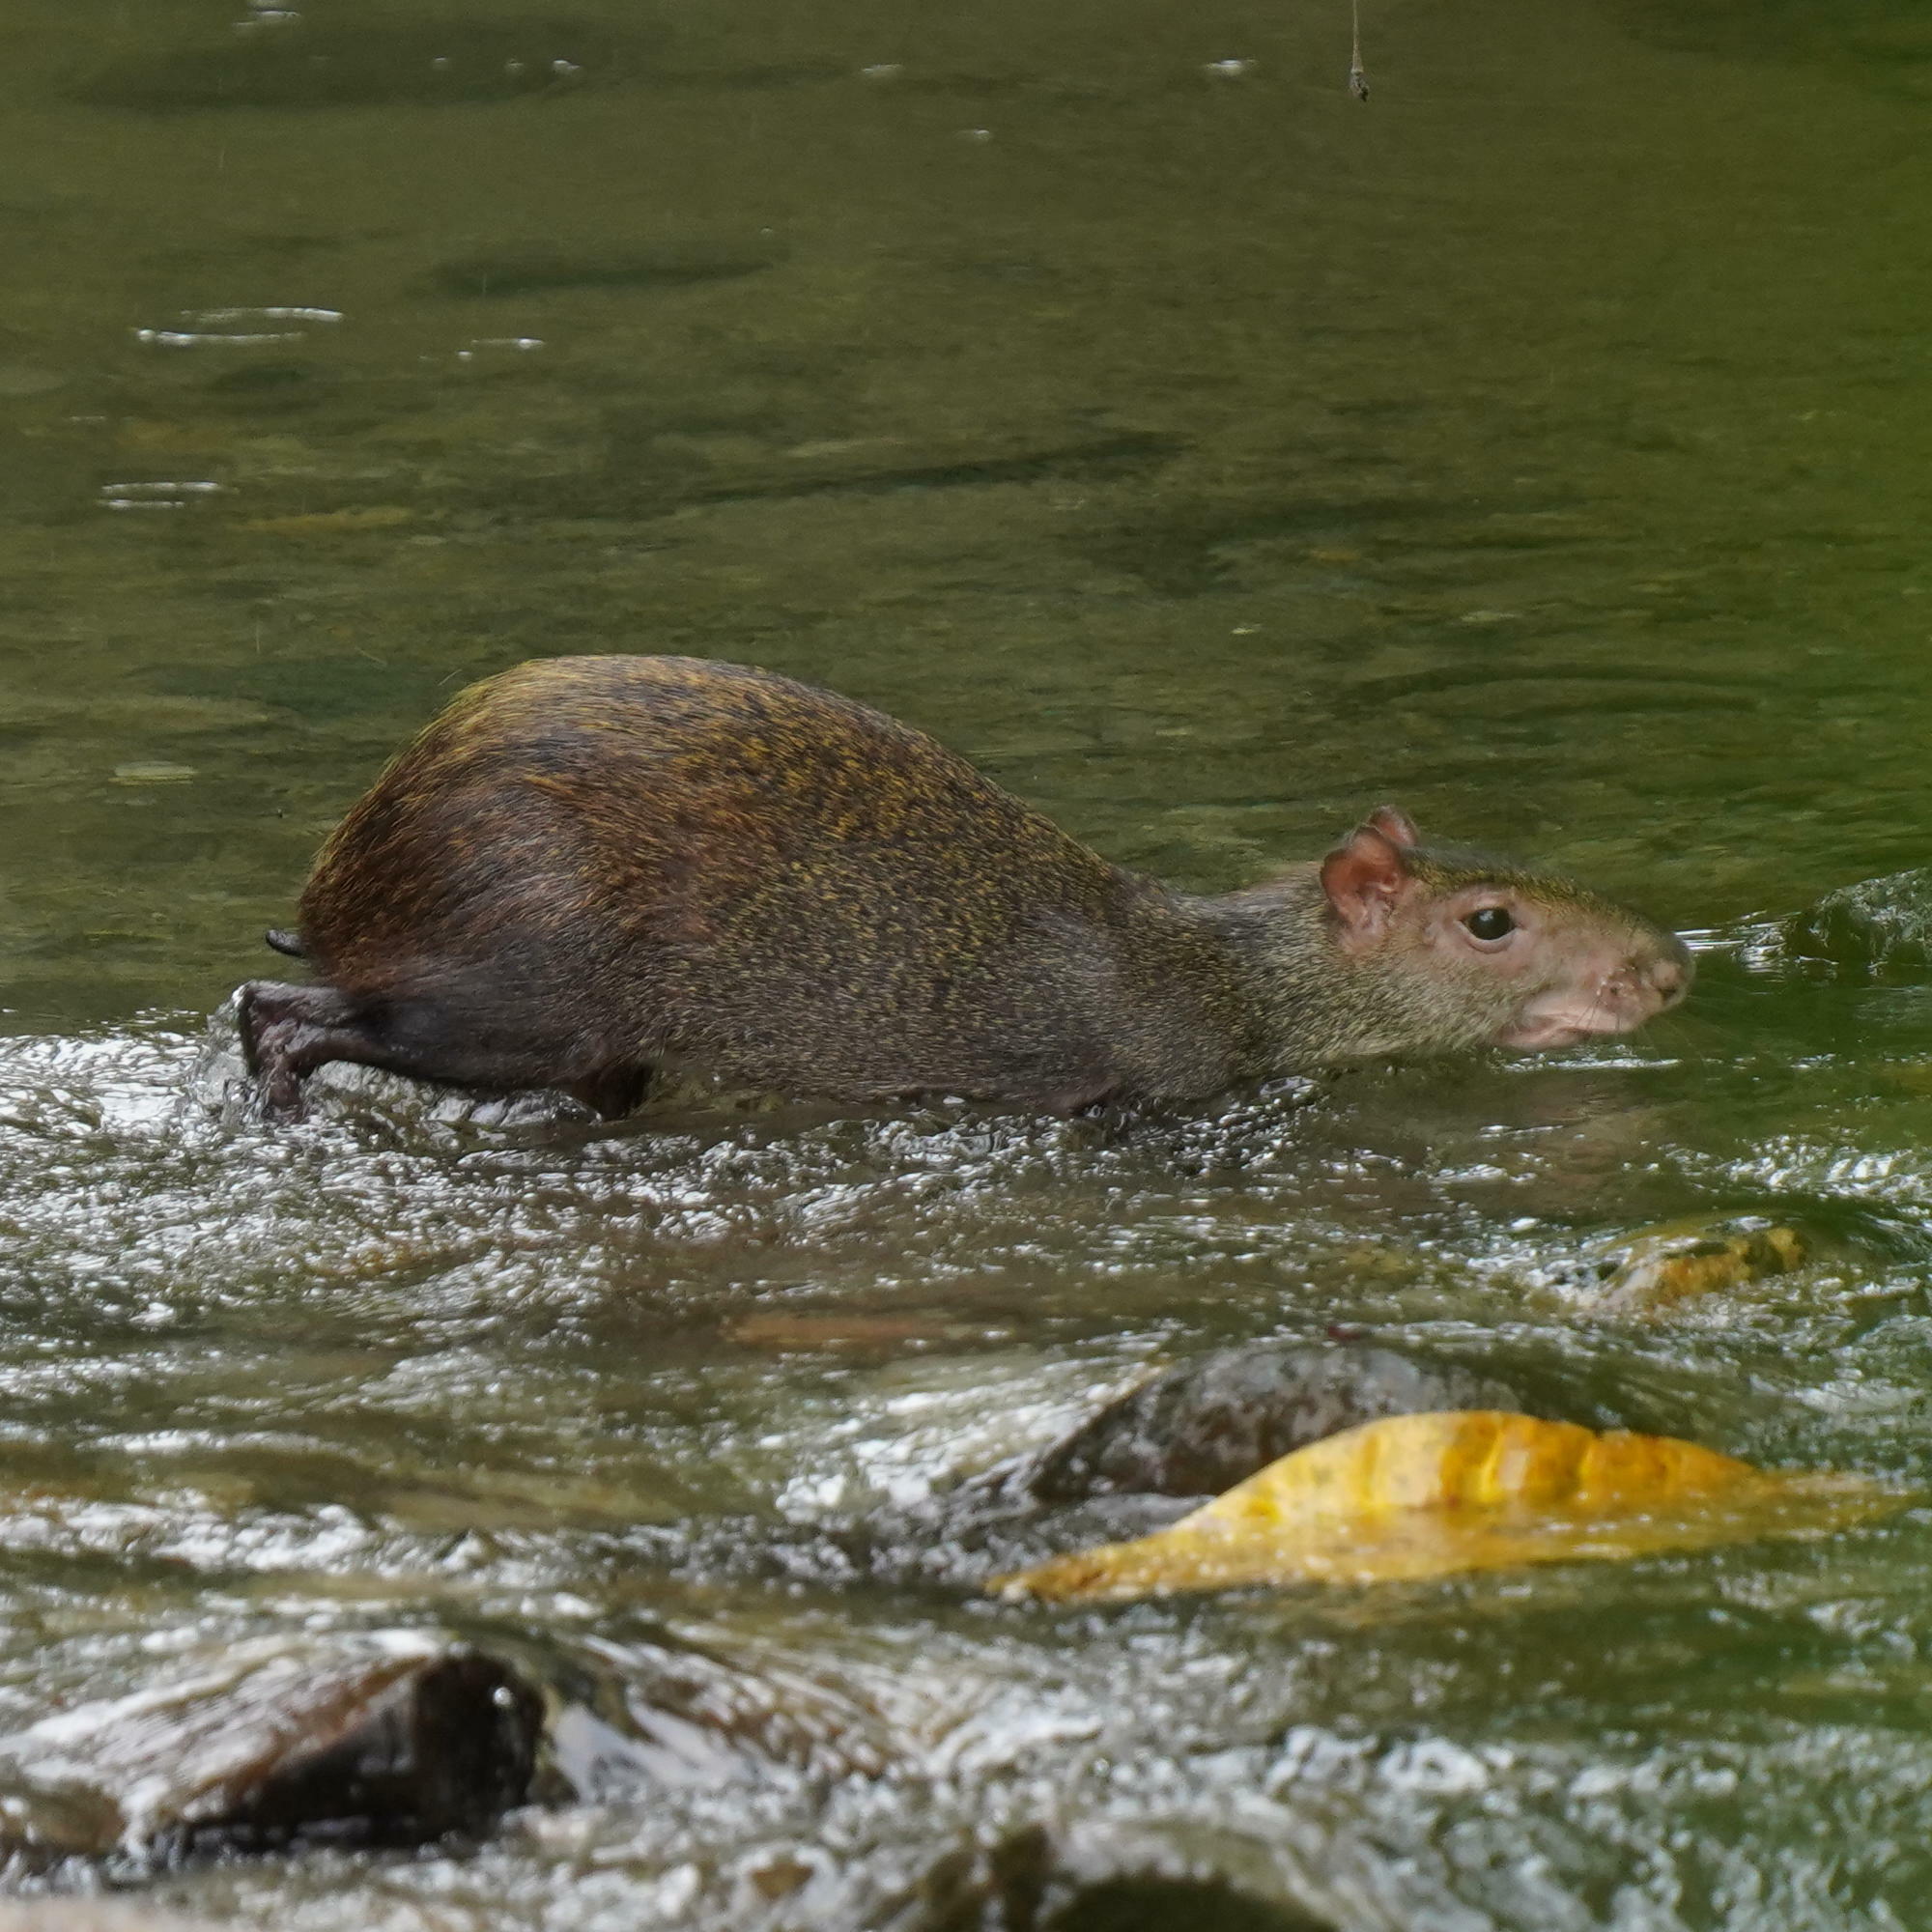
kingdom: Animalia
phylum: Chordata
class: Mammalia
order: Rodentia
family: Dasyproctidae
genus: Dasyprocta
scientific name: Dasyprocta punctata
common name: Central american agouti
